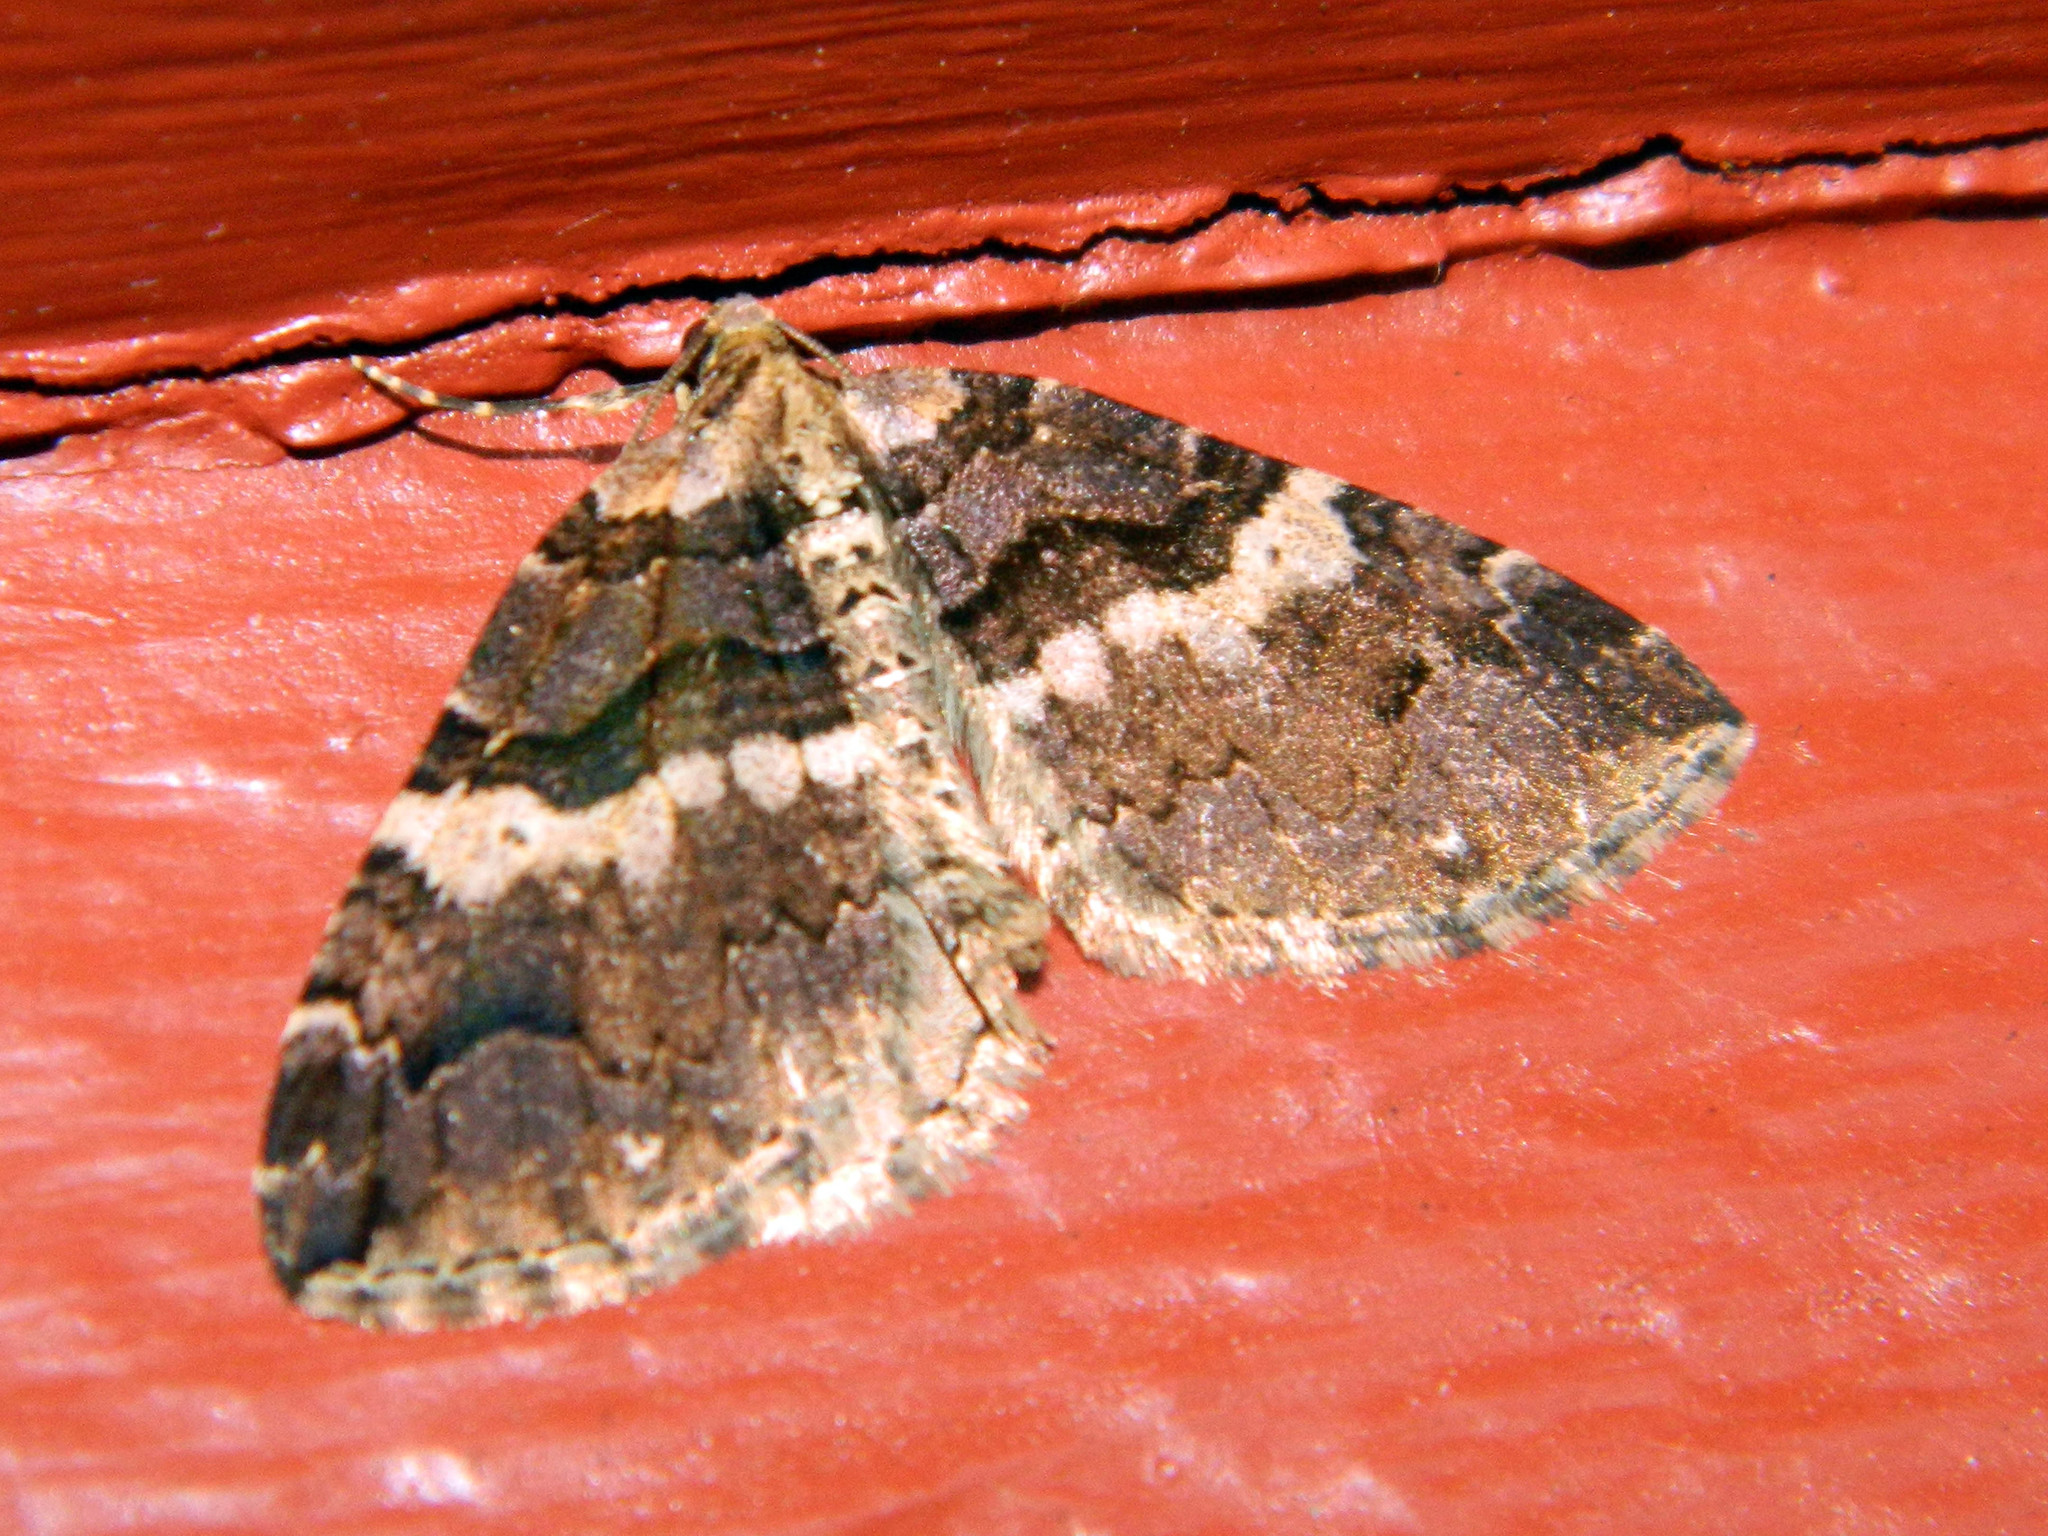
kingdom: Animalia
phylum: Arthropoda
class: Insecta
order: Lepidoptera
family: Geometridae
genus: Anticlea
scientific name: Anticlea vasiliata
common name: Variable carpet
